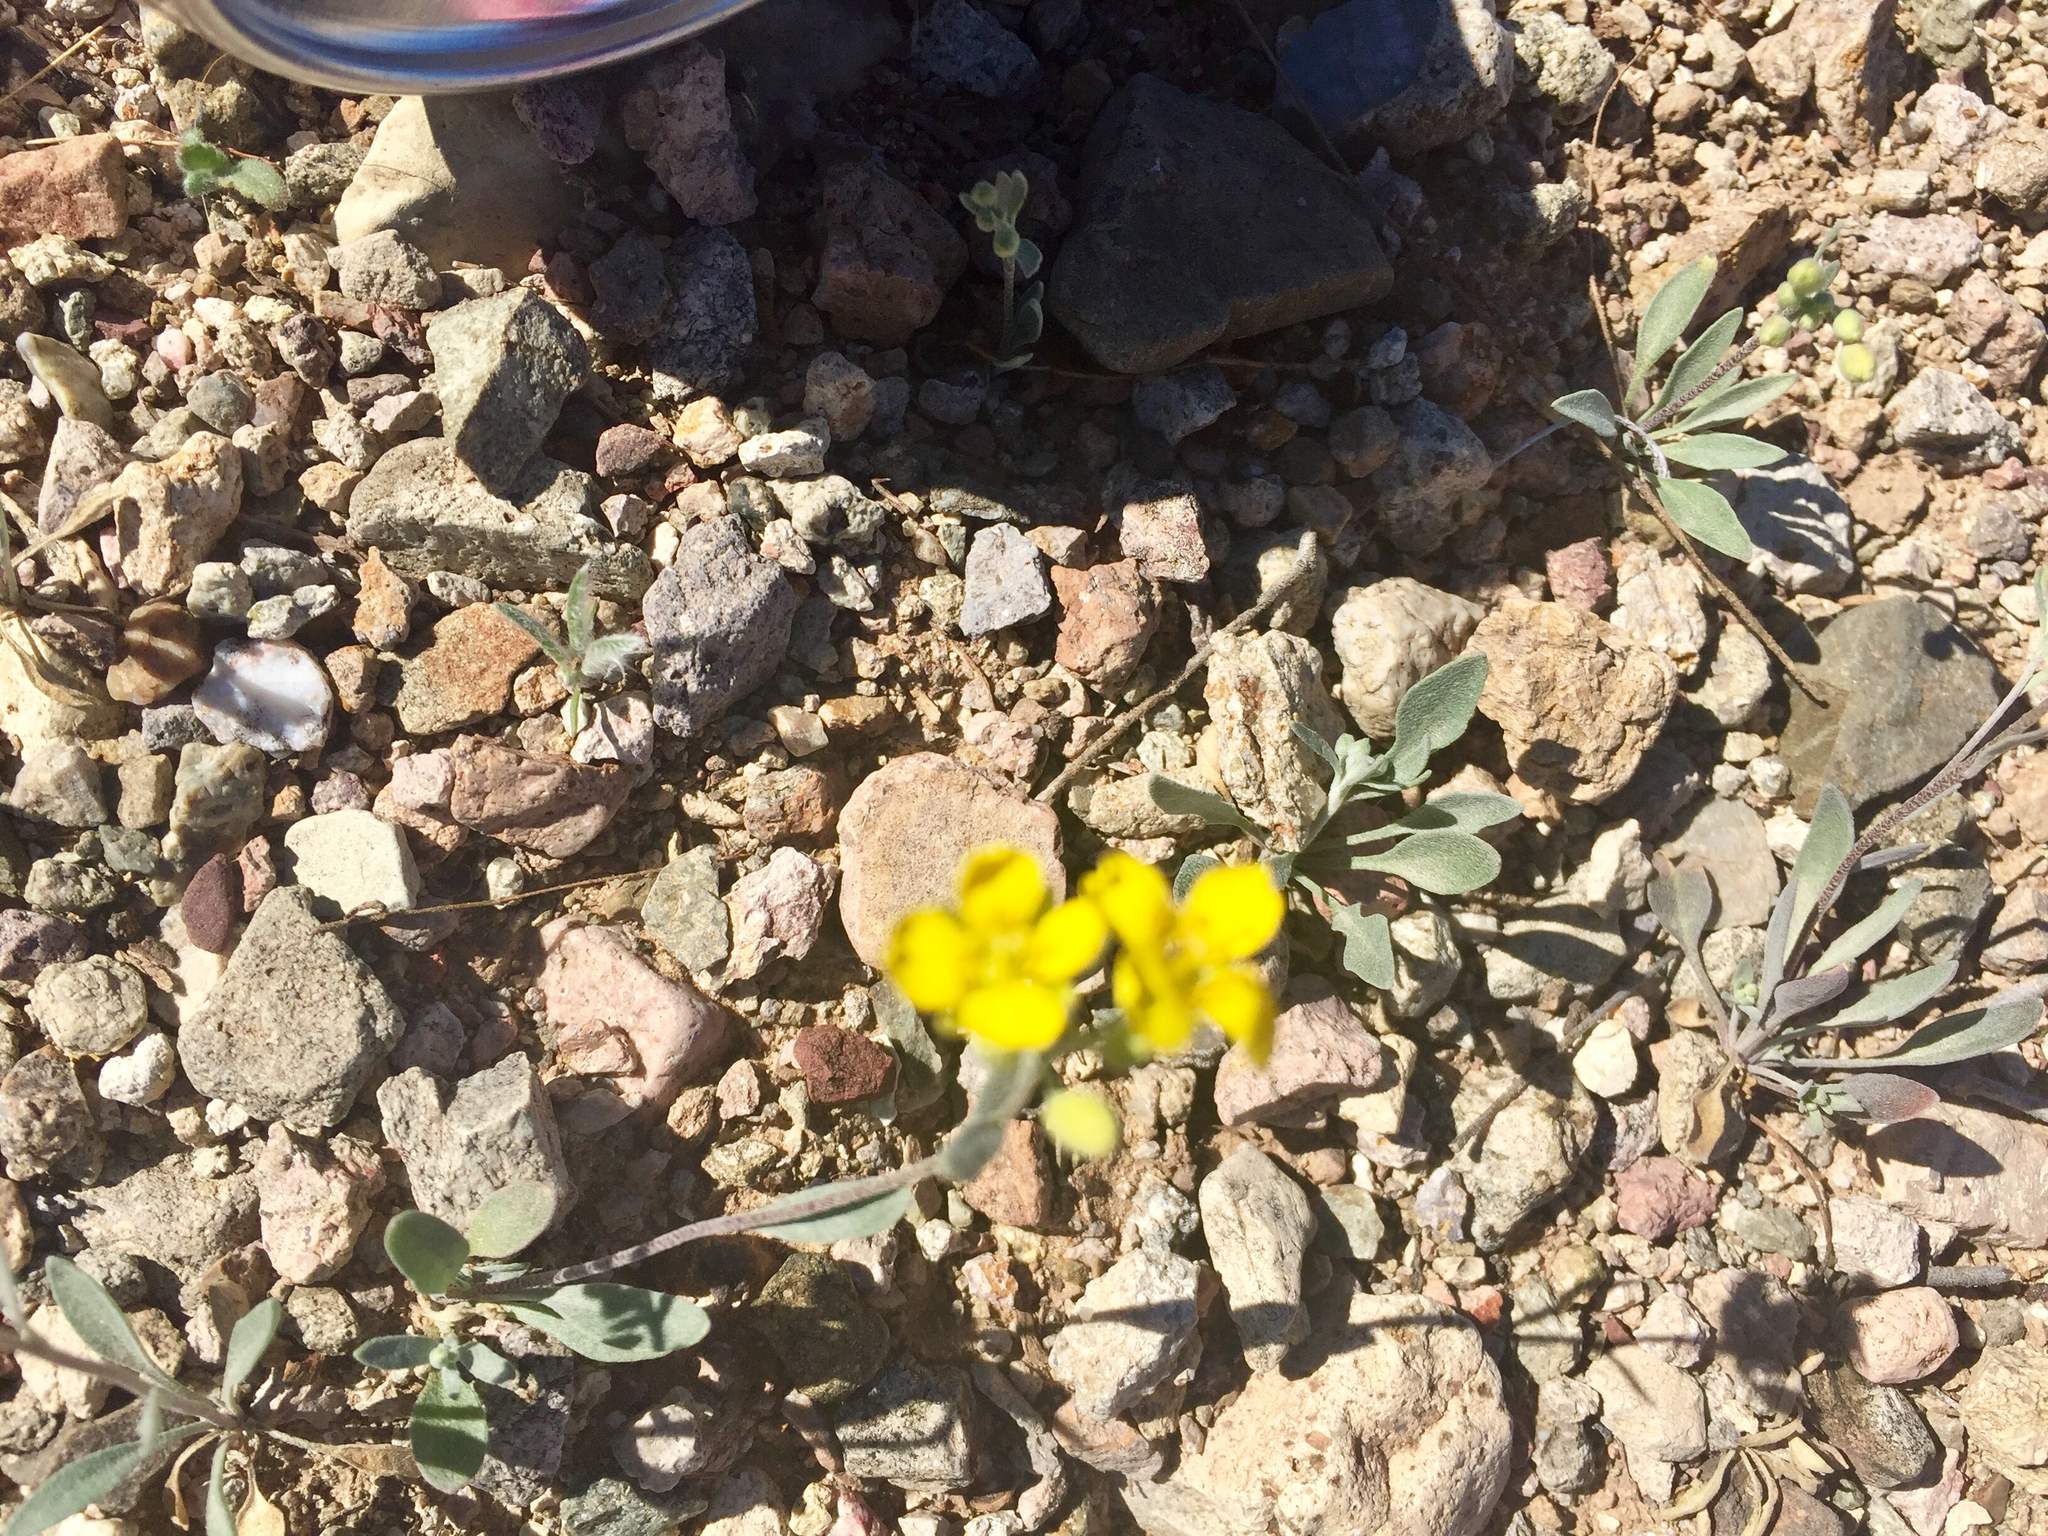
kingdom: Plantae
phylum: Tracheophyta
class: Magnoliopsida
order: Brassicales
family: Brassicaceae
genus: Physaria
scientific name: Physaria gordonii
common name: Gordon's bladderpod
